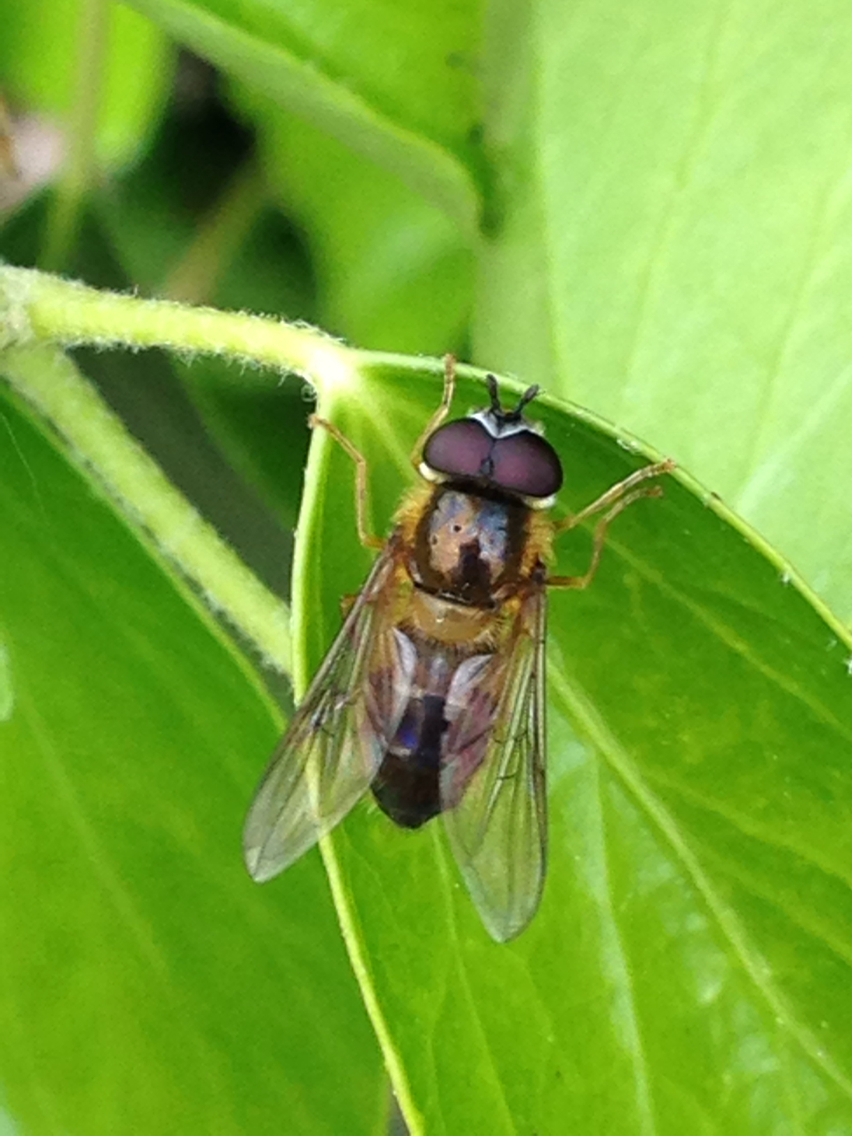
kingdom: Animalia
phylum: Arthropoda
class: Insecta
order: Diptera
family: Syrphidae
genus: Epistrophe
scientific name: Epistrophe eligans
